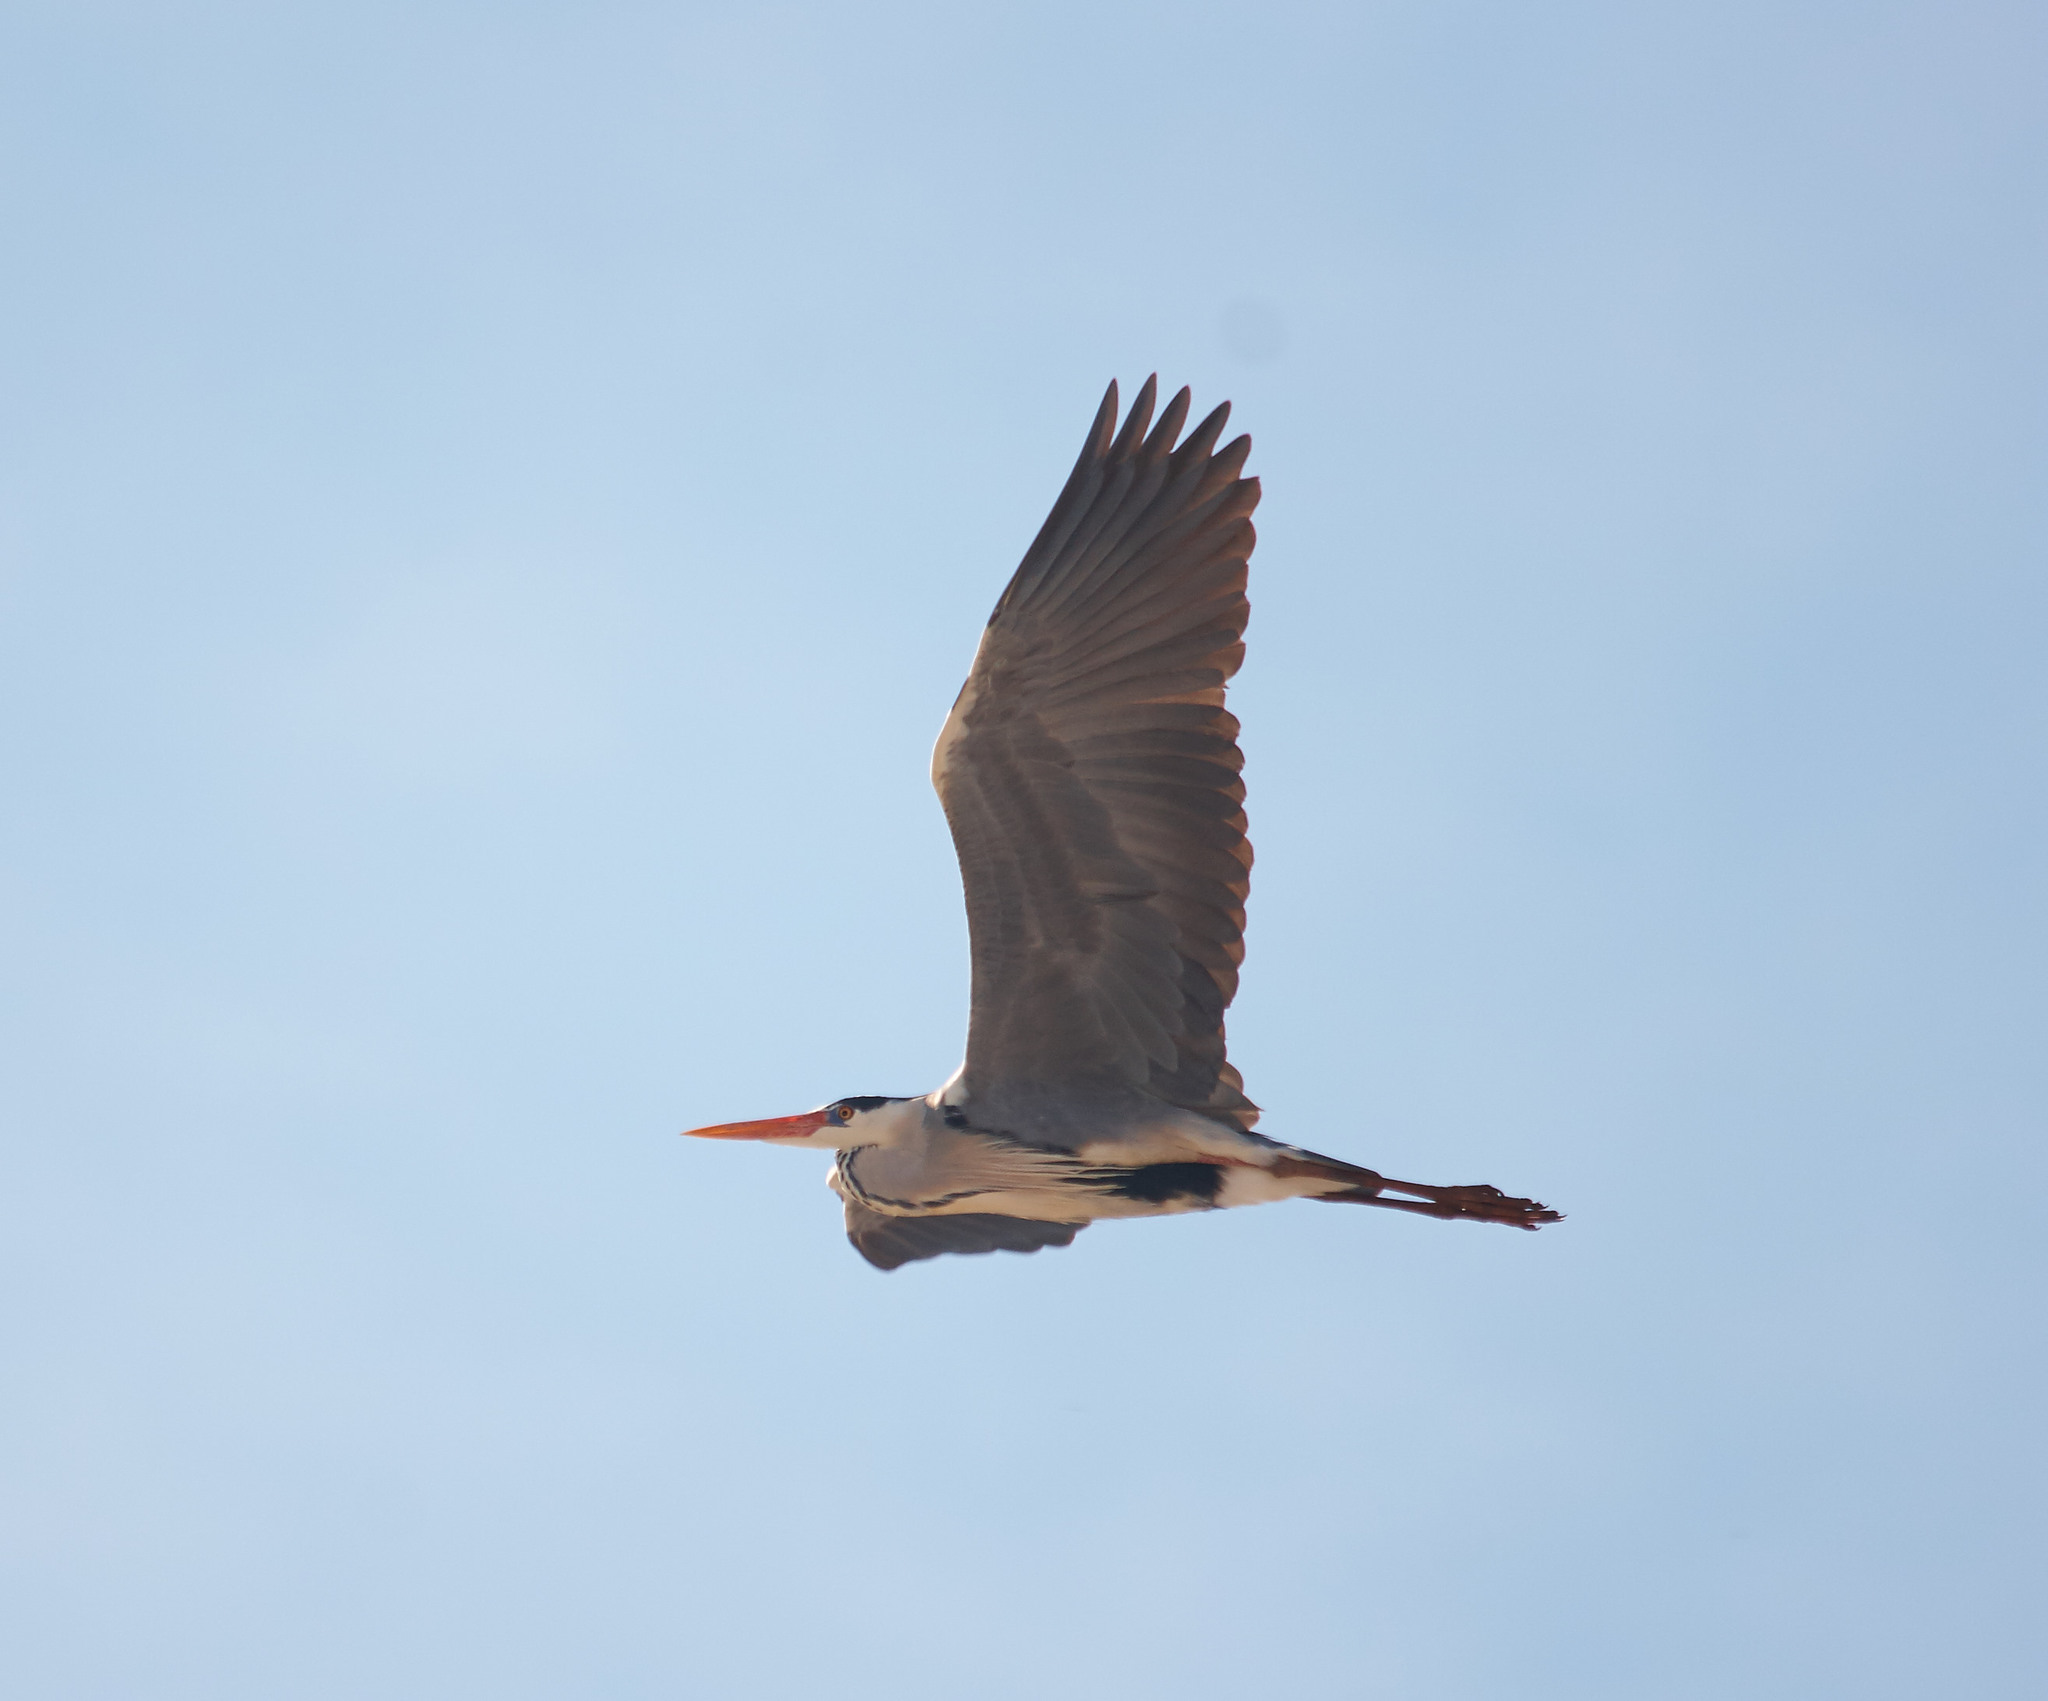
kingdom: Animalia
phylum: Chordata
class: Aves
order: Pelecaniformes
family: Ardeidae
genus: Ardea
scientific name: Ardea cinerea
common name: Grey heron
